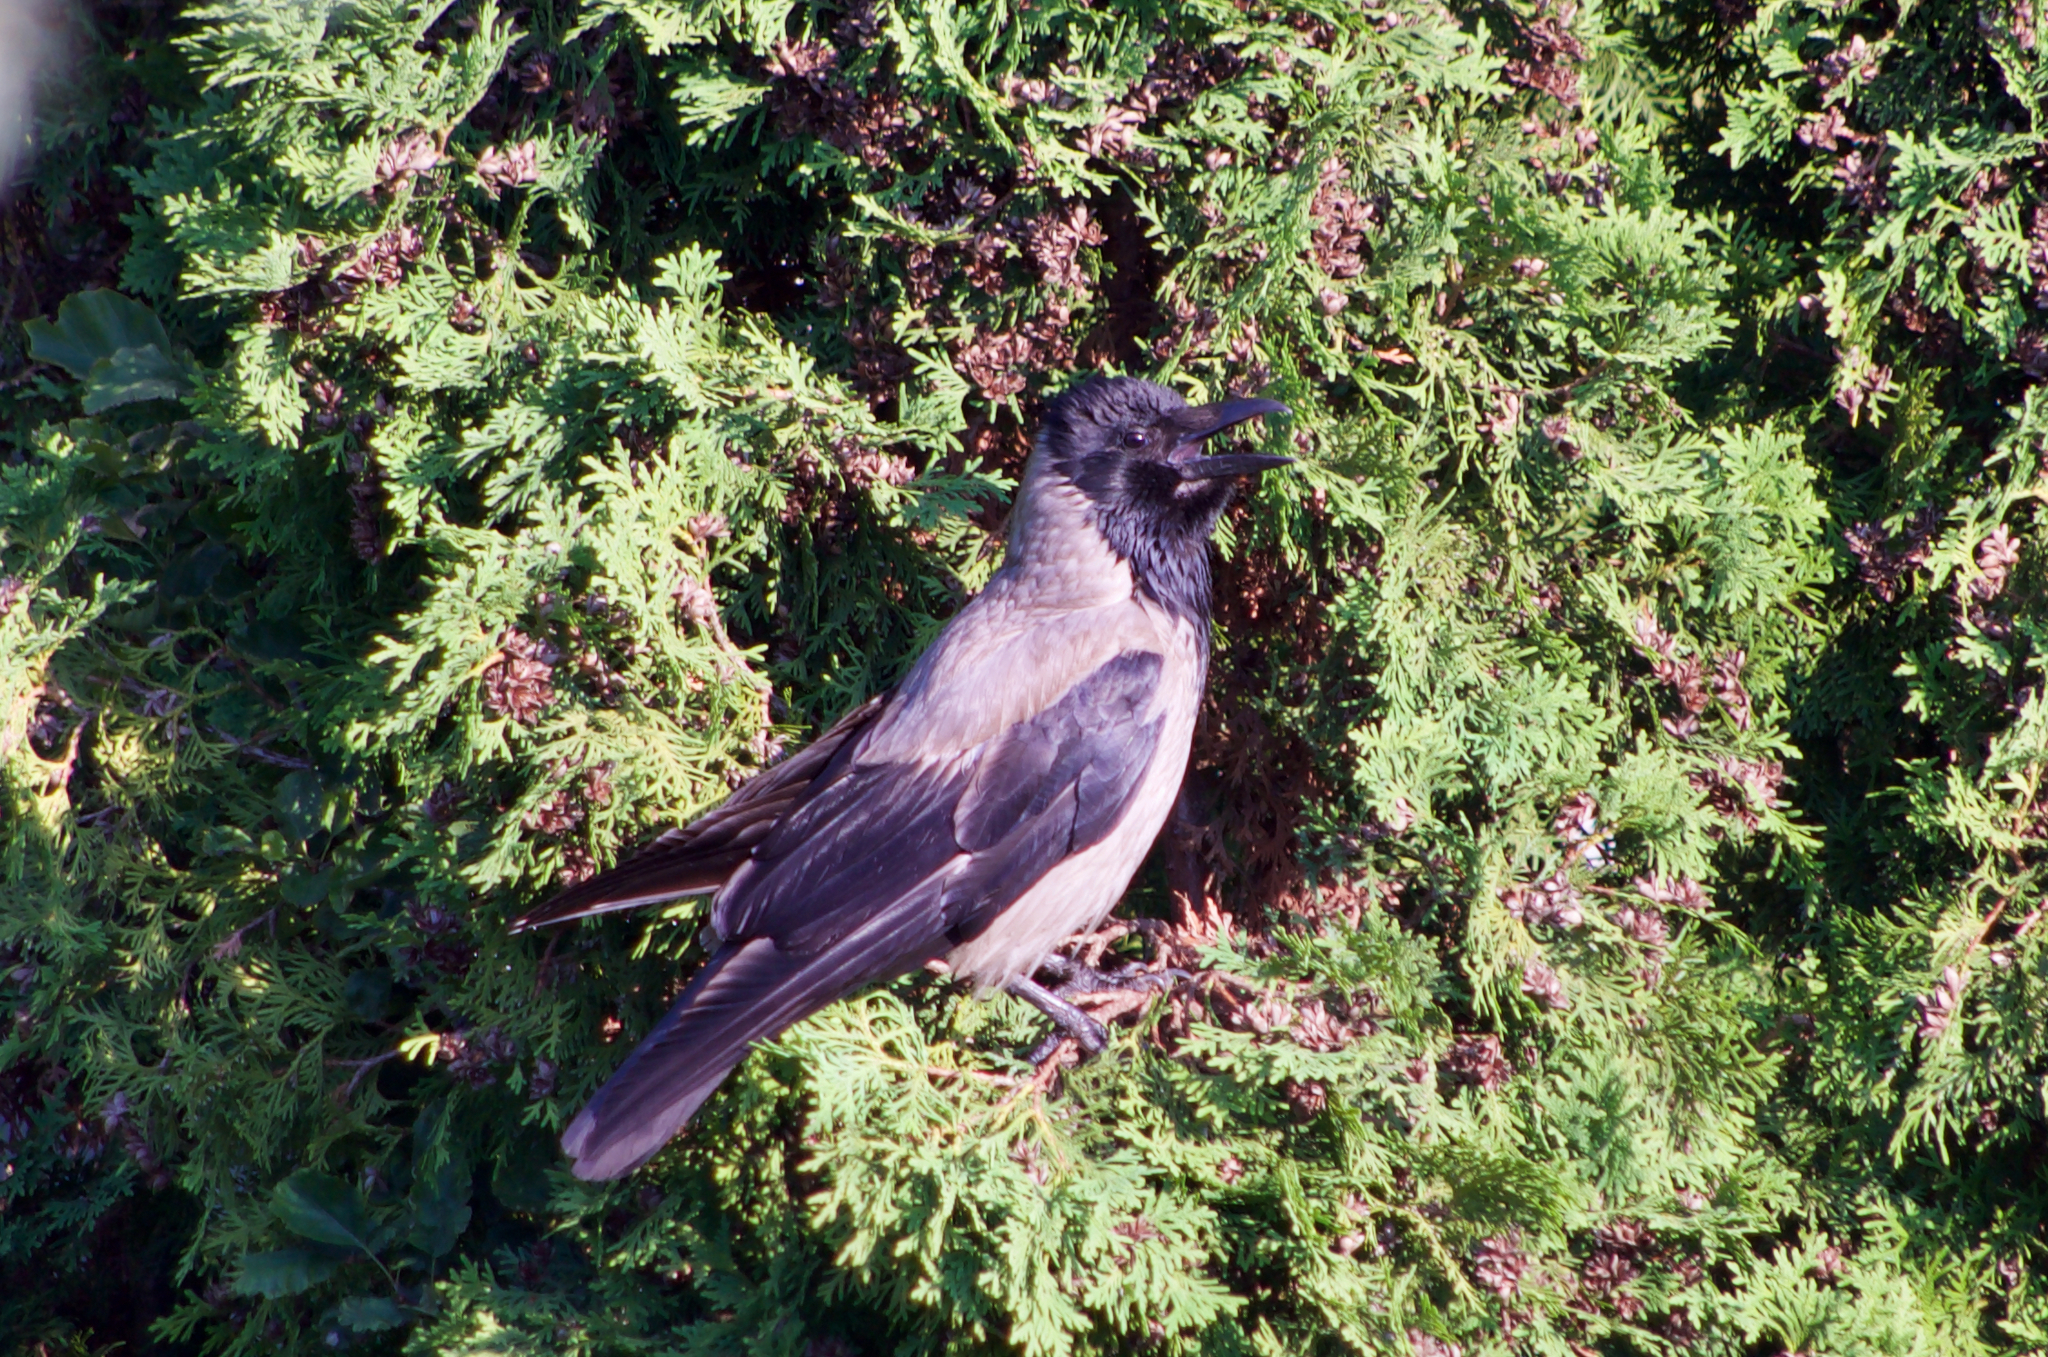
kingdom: Animalia
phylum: Chordata
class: Aves
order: Passeriformes
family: Corvidae
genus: Corvus
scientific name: Corvus cornix
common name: Hooded crow
